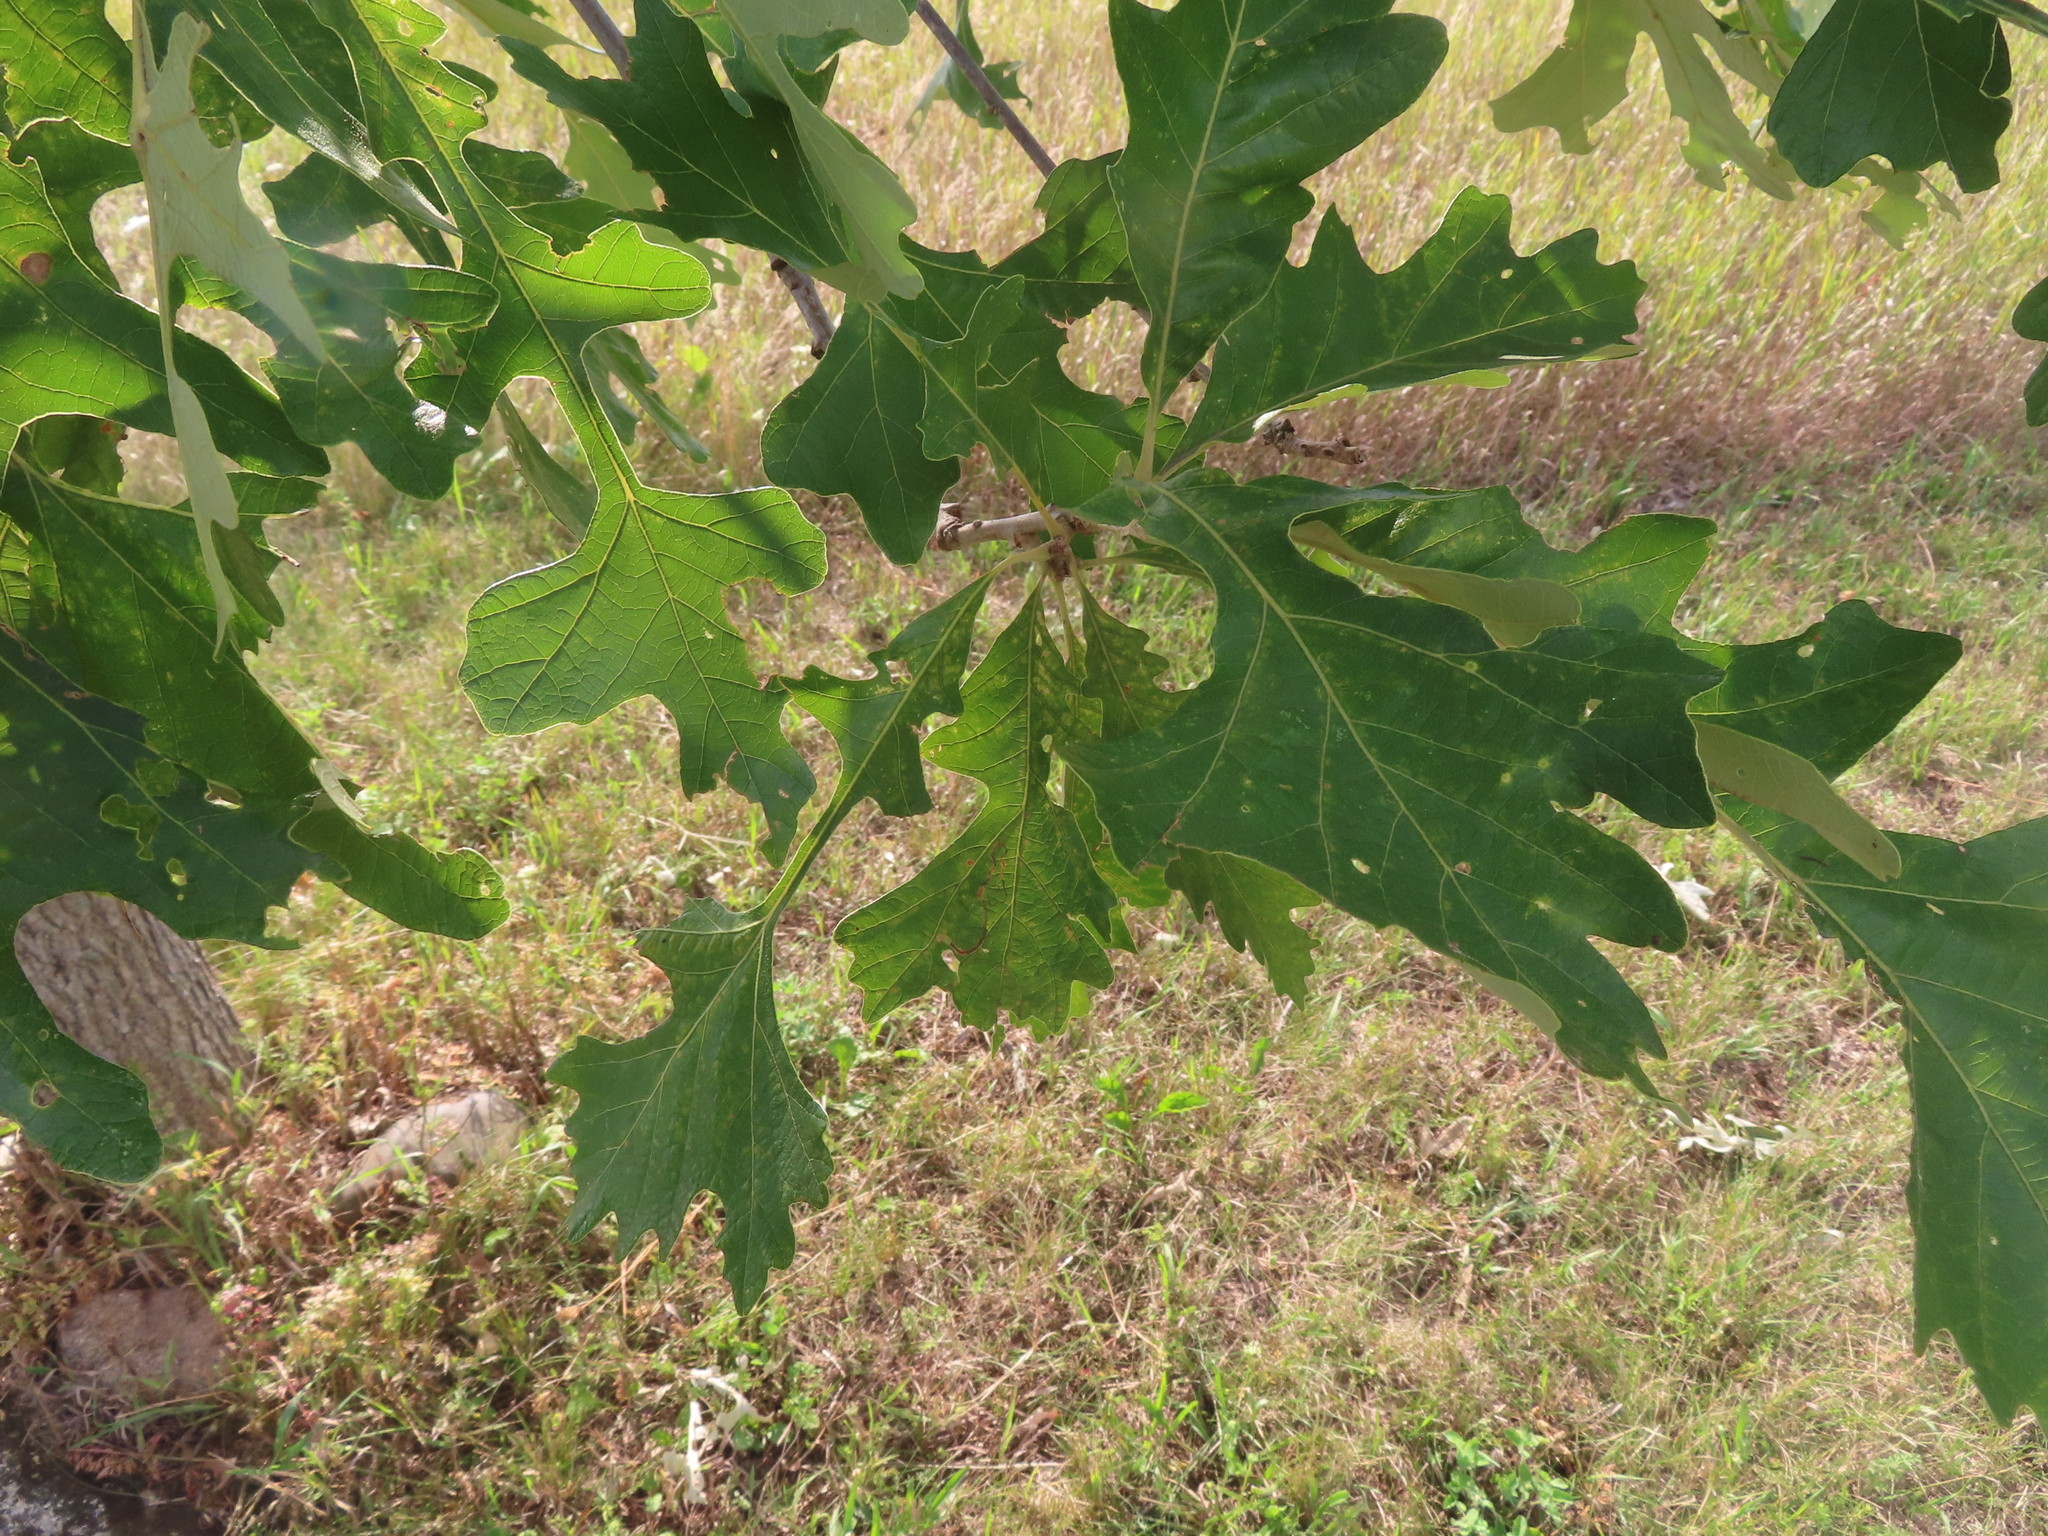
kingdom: Plantae
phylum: Tracheophyta
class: Magnoliopsida
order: Fagales
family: Fagaceae
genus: Quercus
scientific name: Quercus macrocarpa
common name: Bur oak
